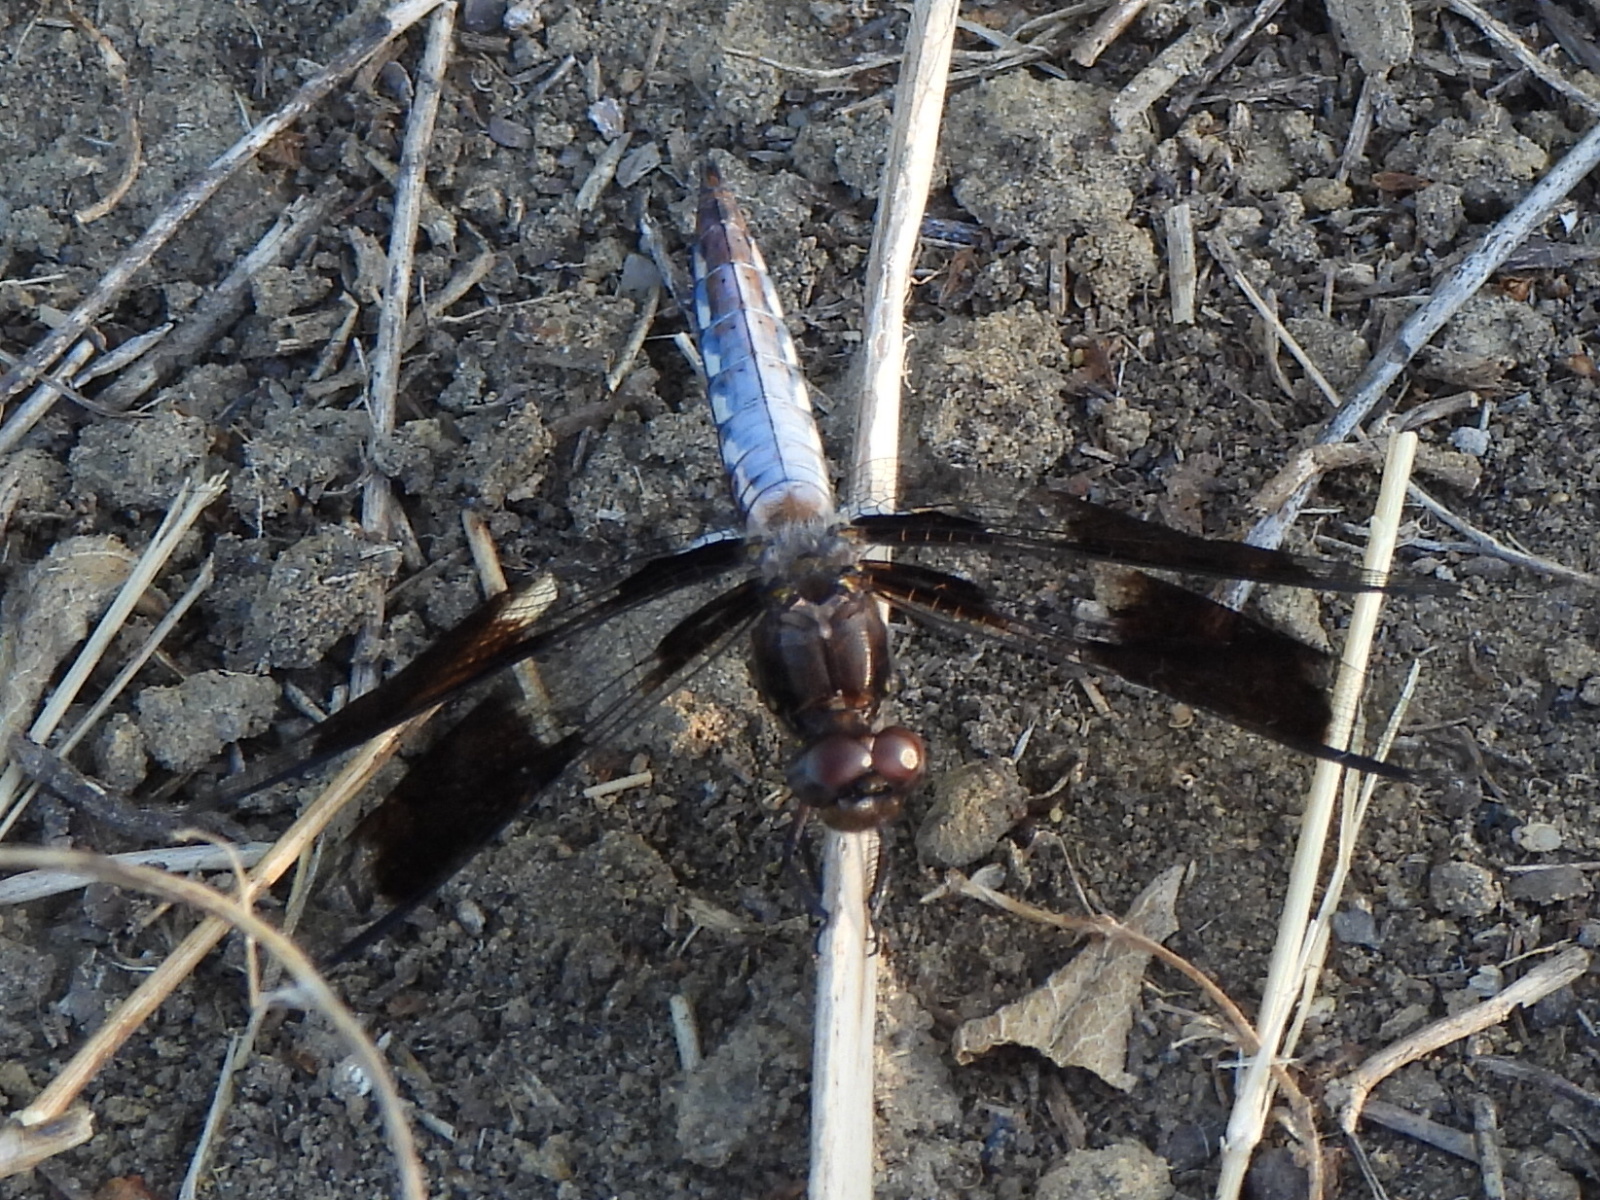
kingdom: Animalia
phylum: Arthropoda
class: Insecta
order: Odonata
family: Libellulidae
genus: Plathemis
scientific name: Plathemis lydia
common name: Common whitetail
